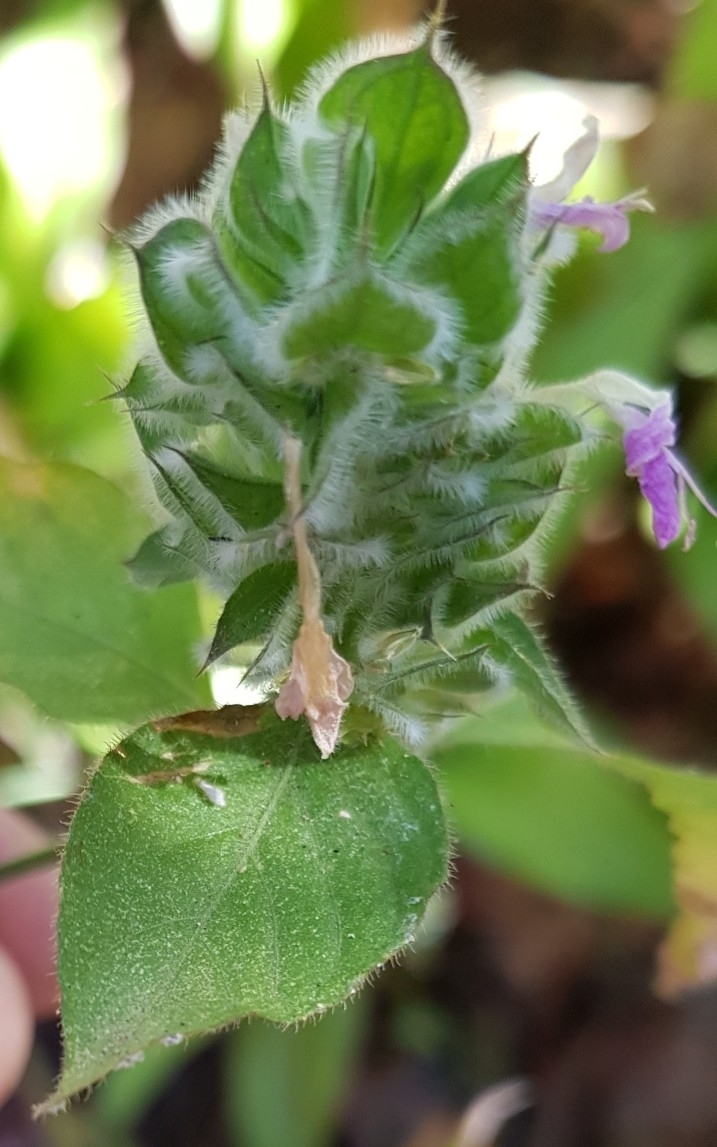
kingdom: Plantae
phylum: Tracheophyta
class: Magnoliopsida
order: Lamiales
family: Acanthaceae
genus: Dicliptera
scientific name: Dicliptera unguiculata
